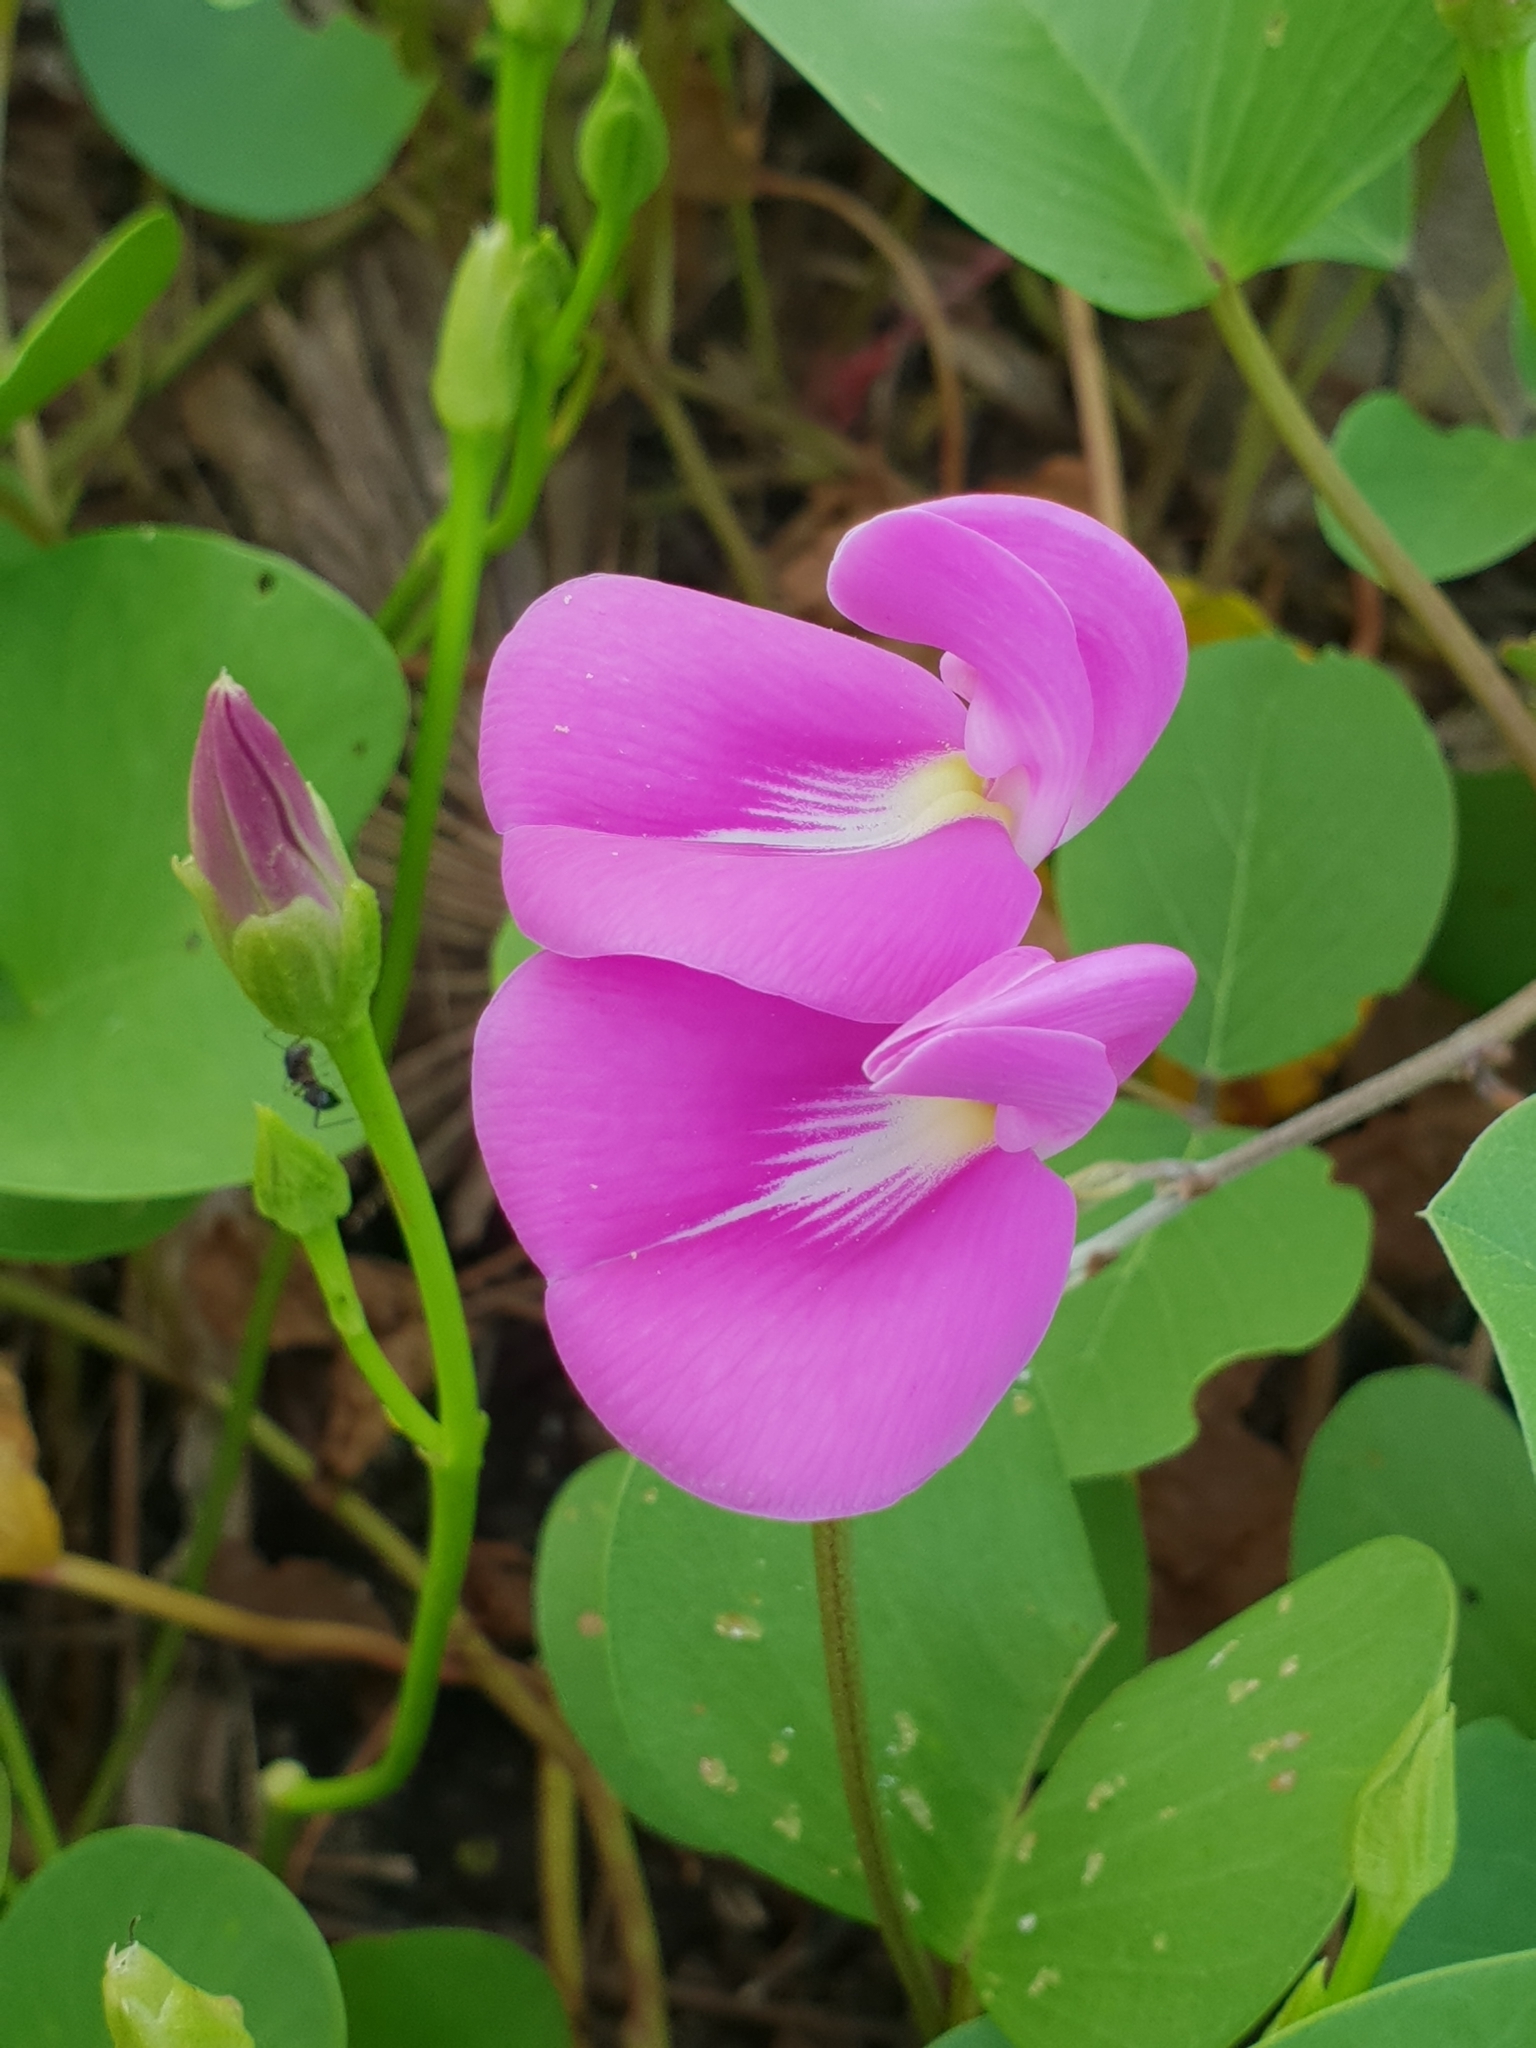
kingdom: Plantae
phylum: Tracheophyta
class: Magnoliopsida
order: Fabales
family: Fabaceae
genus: Canavalia
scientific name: Canavalia rosea
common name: Beach-bean
